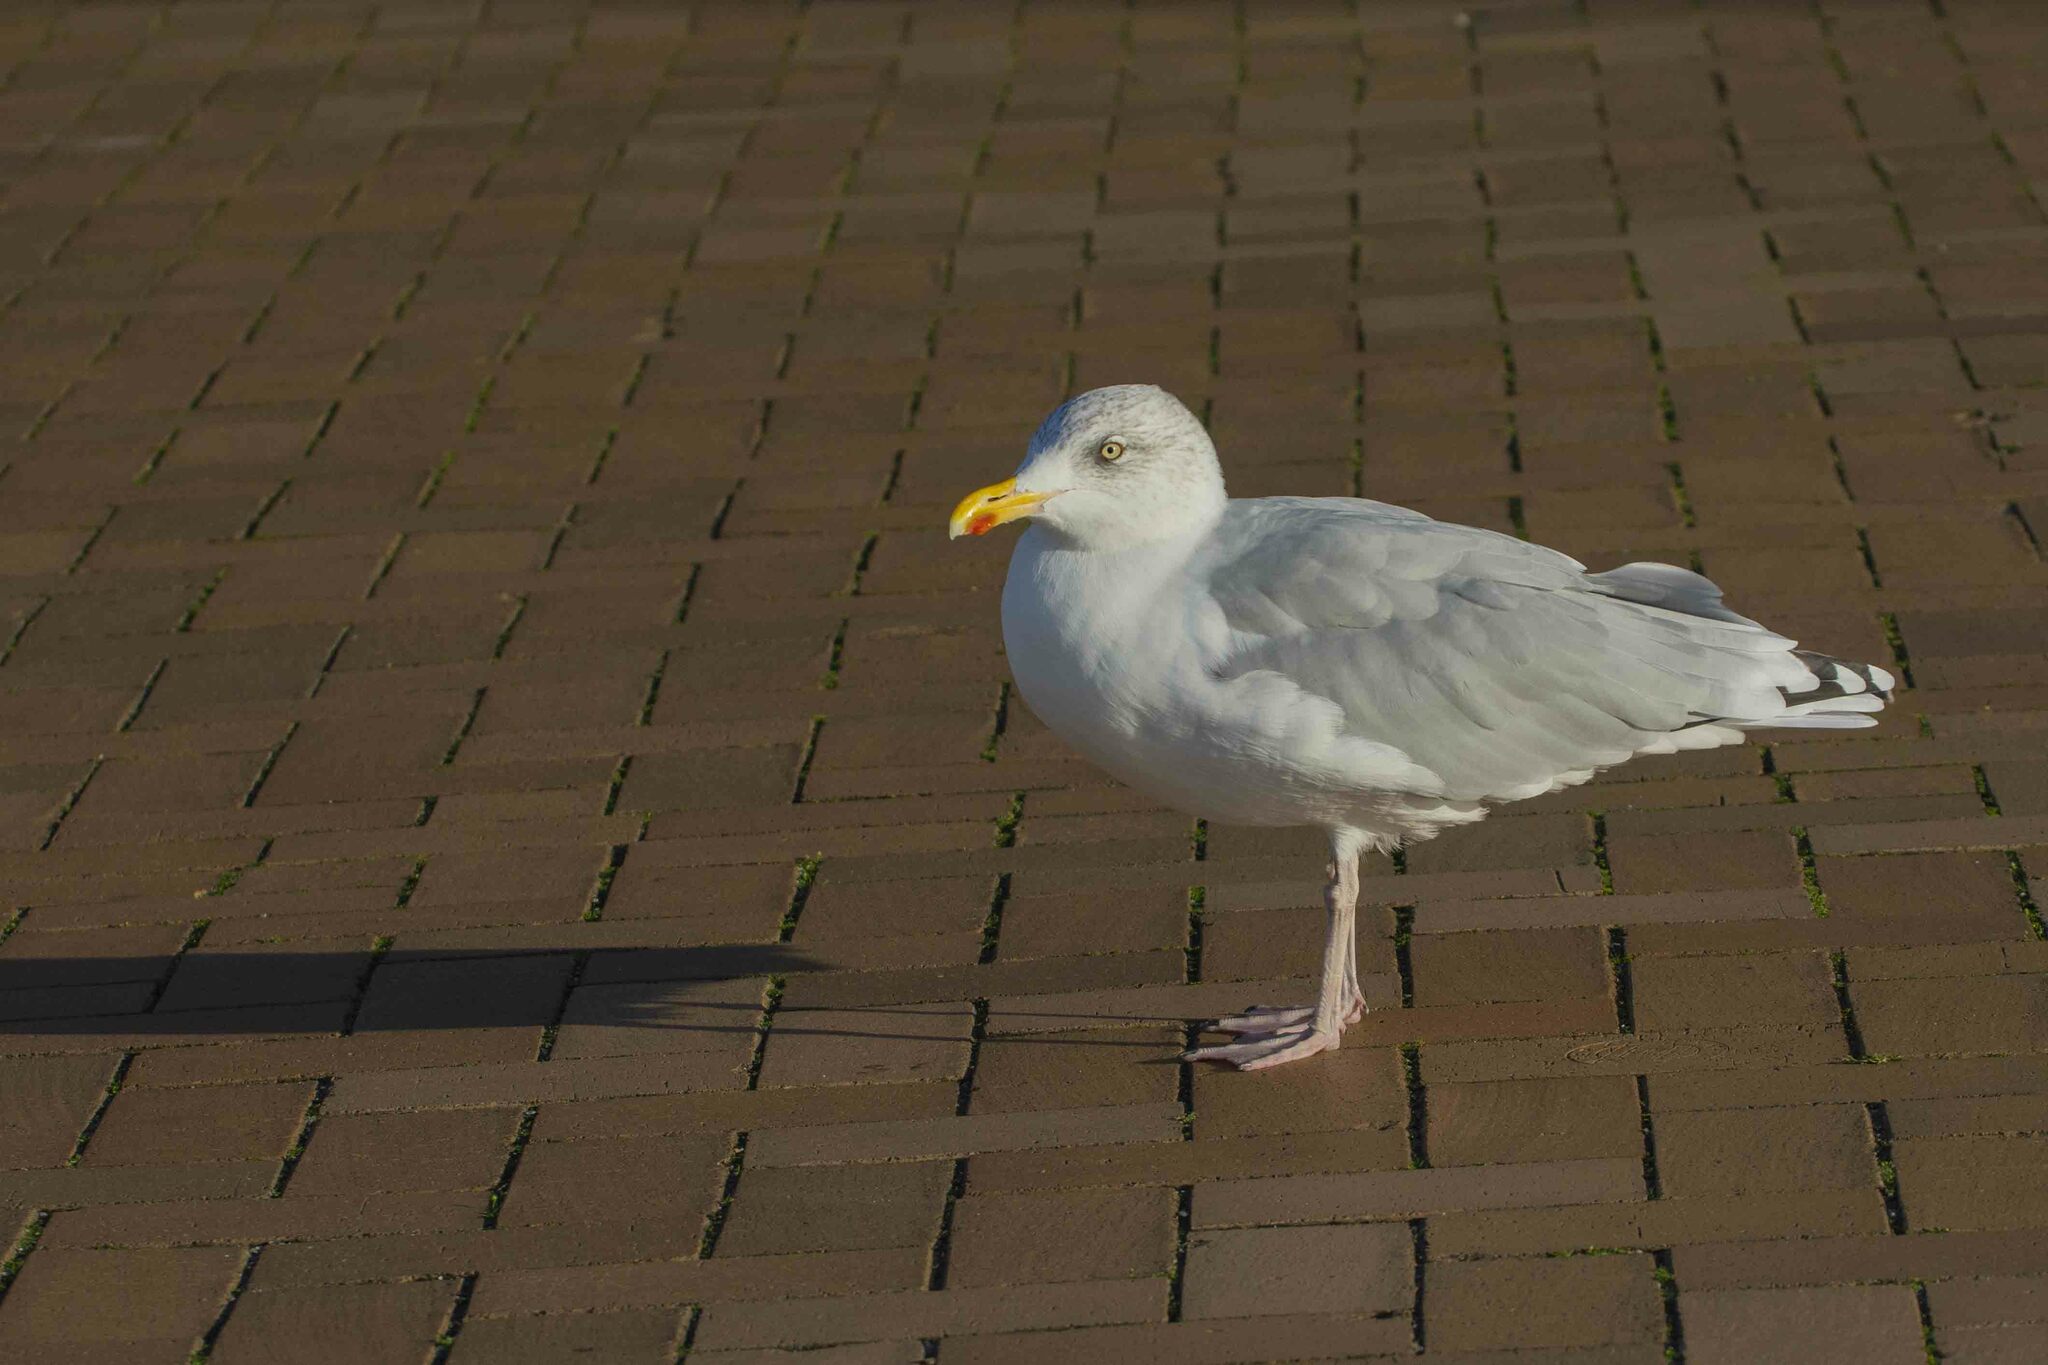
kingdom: Animalia
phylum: Chordata
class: Aves
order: Charadriiformes
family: Laridae
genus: Larus
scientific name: Larus argentatus
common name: Herring gull
